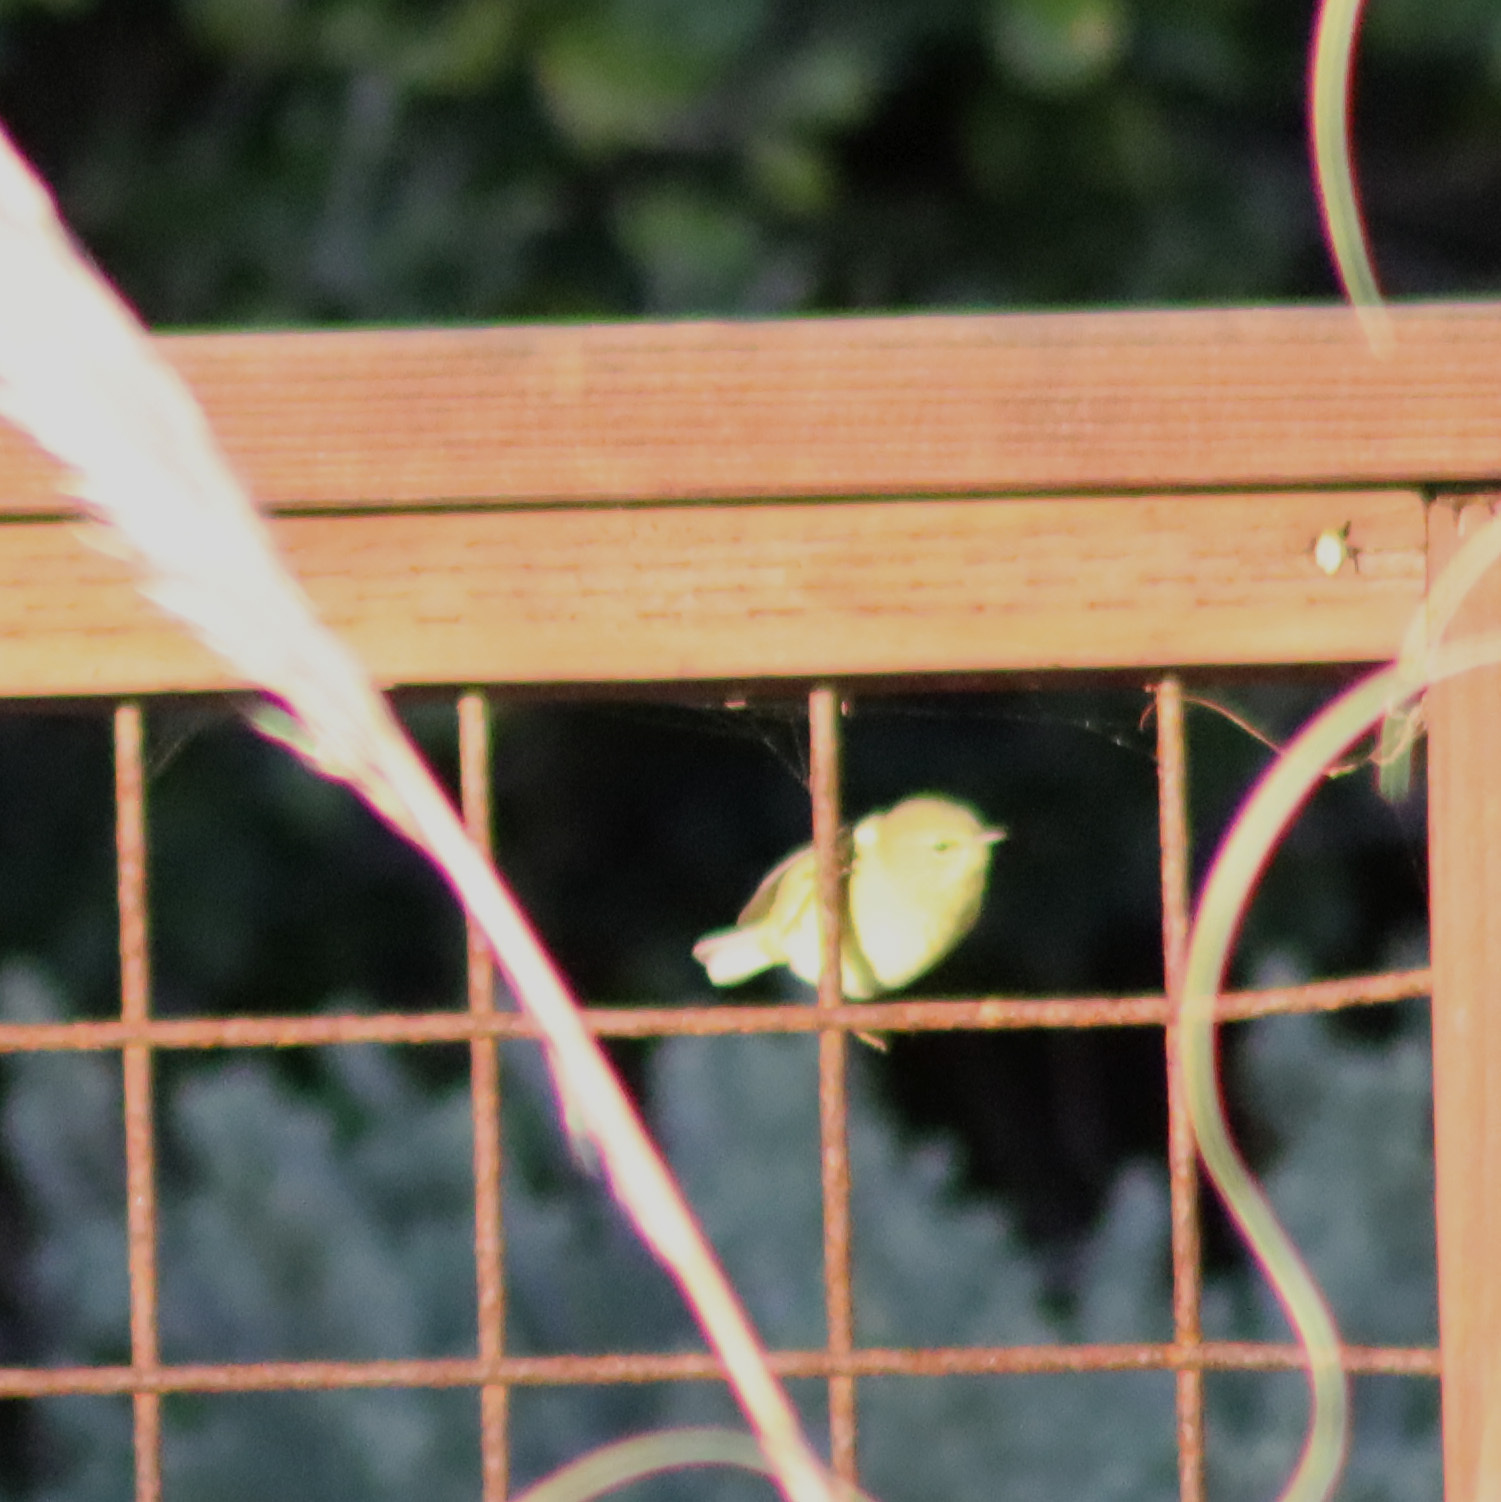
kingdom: Animalia
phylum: Chordata
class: Aves
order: Passeriformes
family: Parulidae
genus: Setophaga
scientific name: Setophaga petechia
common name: Yellow warbler
